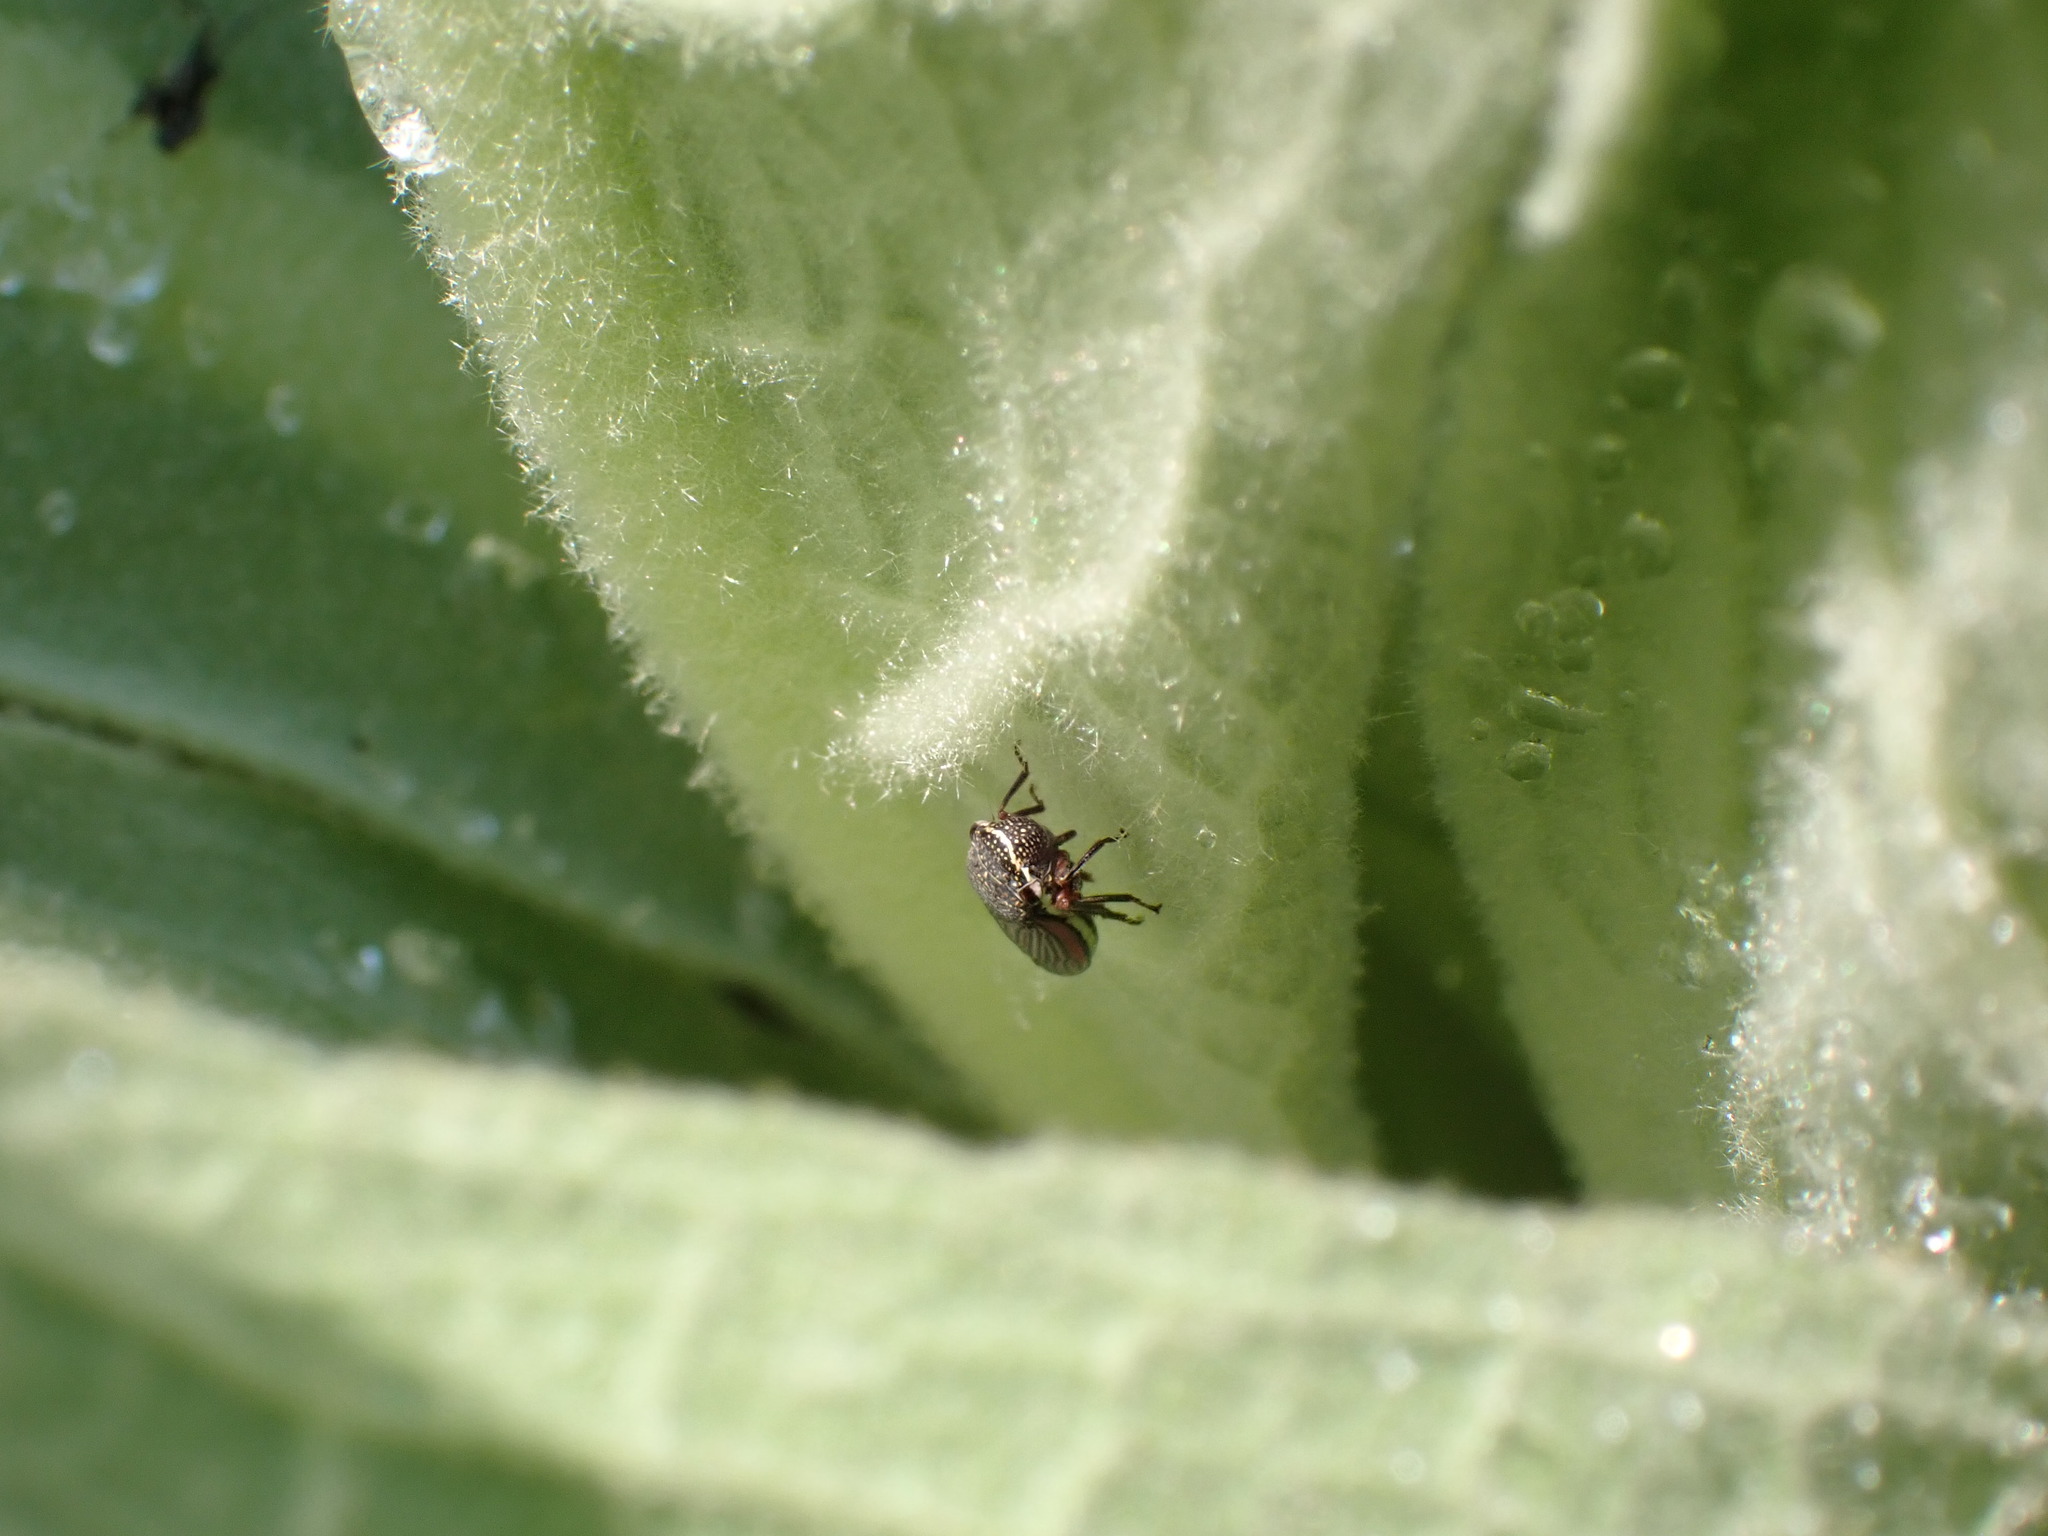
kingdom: Animalia
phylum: Arthropoda
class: Insecta
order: Hemiptera
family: Cicadellidae
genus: Cuerna
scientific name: Cuerna costalis
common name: Lateral-lined sharpshooter
